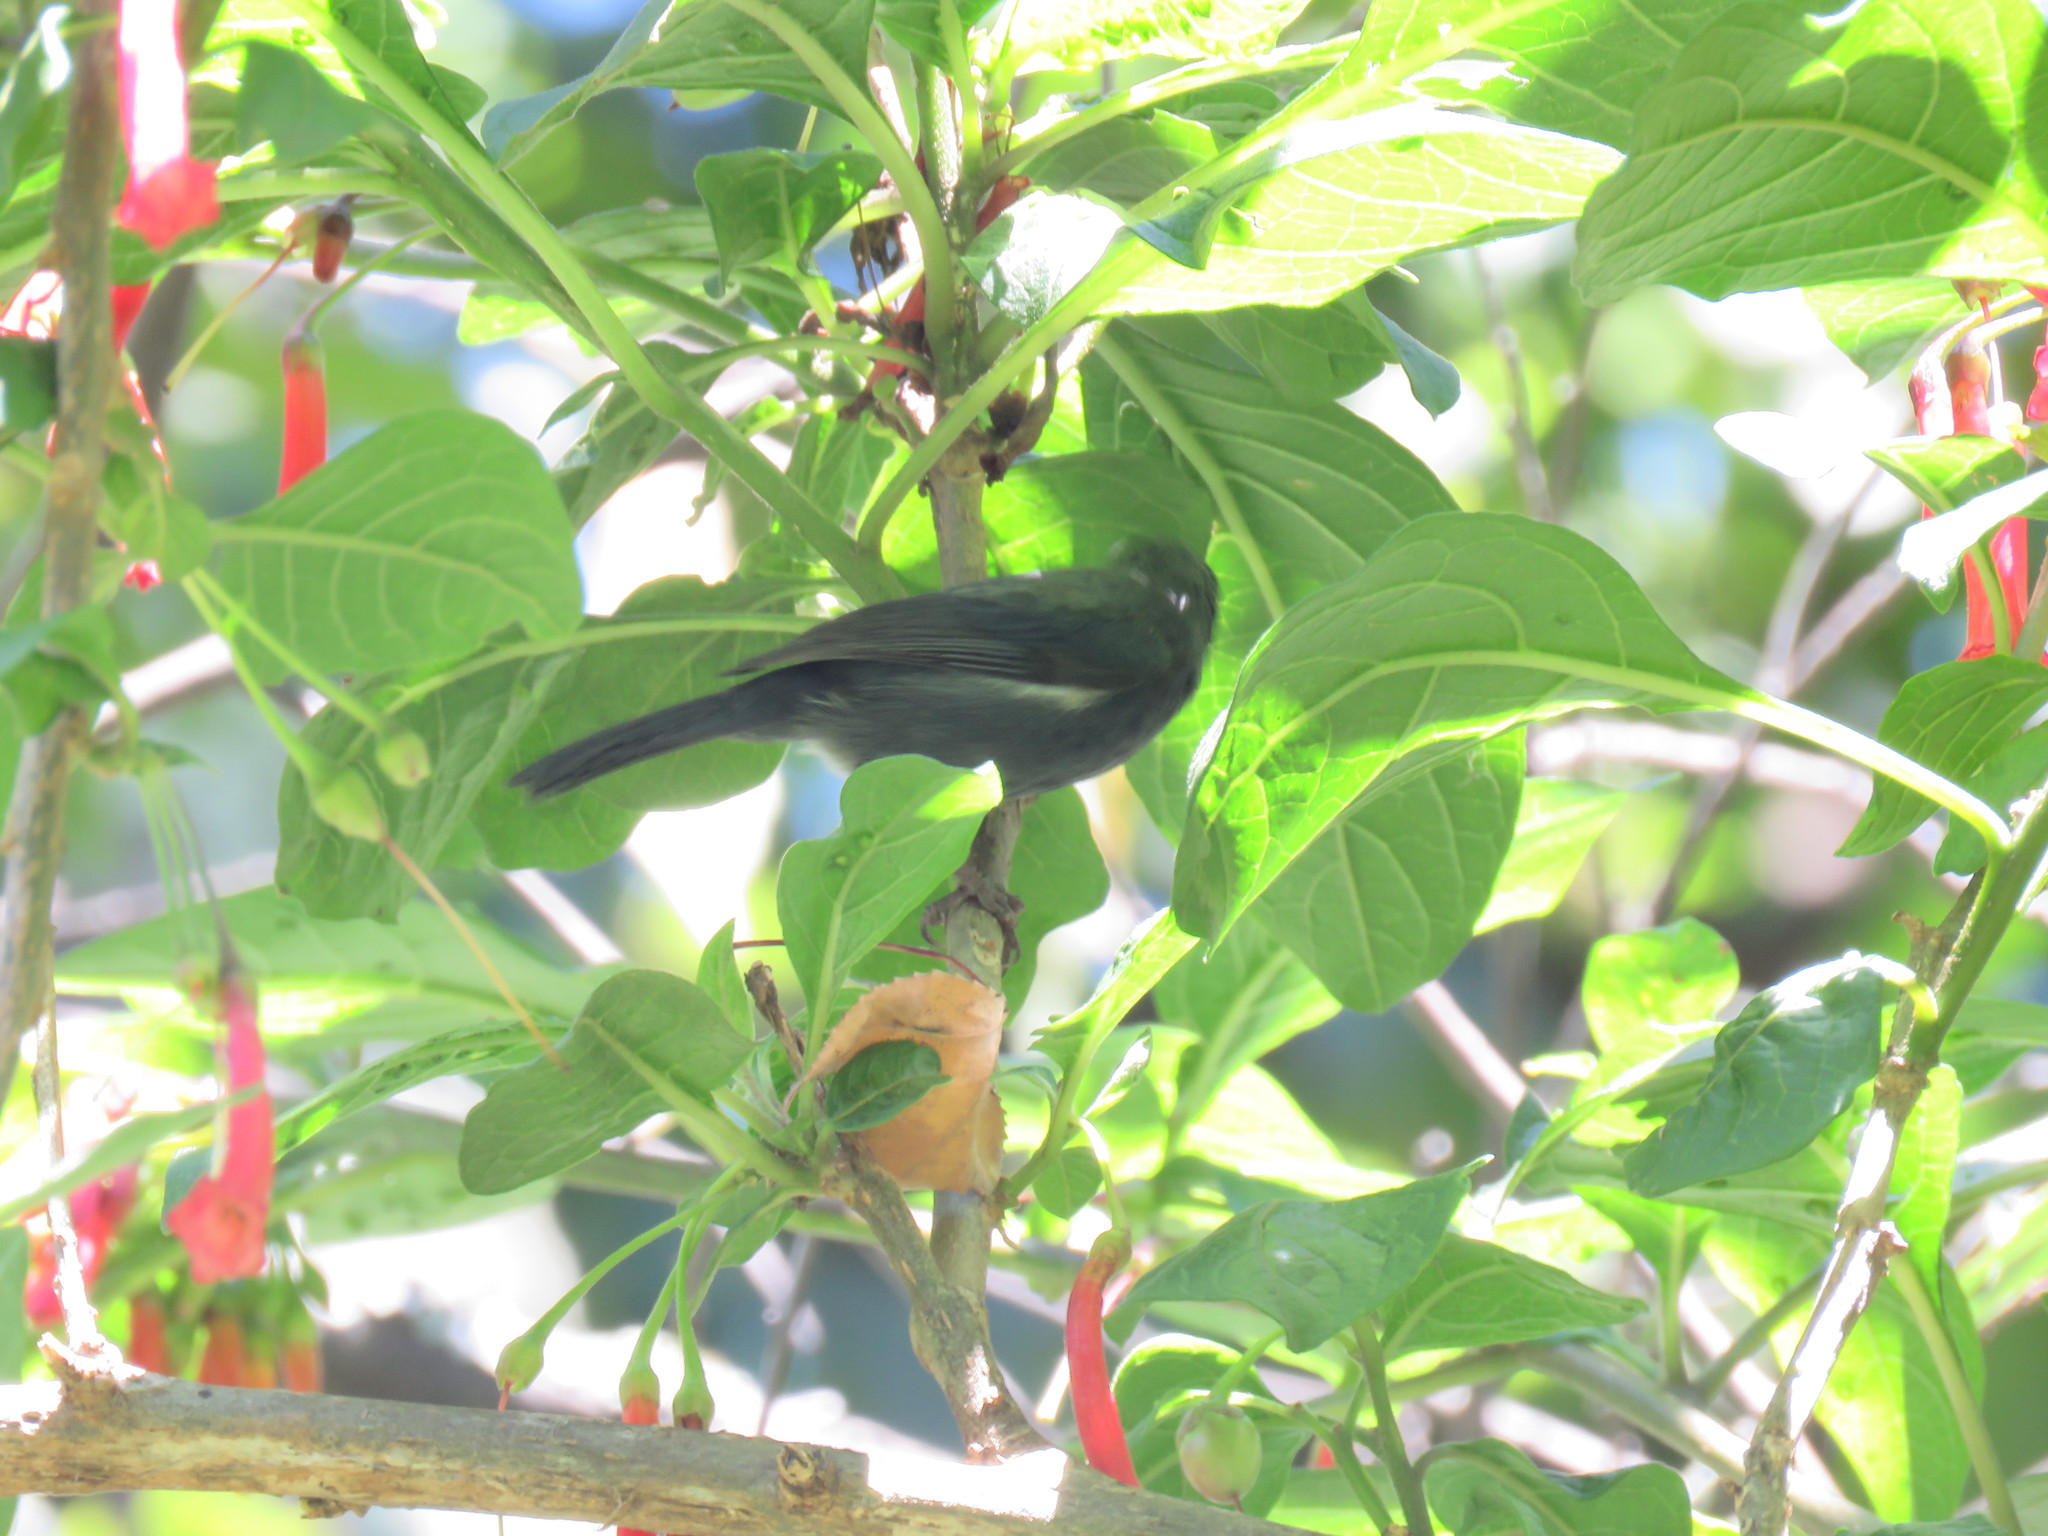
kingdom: Animalia
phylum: Chordata
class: Aves
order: Passeriformes
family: Thraupidae
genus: Diglossa
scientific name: Diglossa albilatera
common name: White-sided flowerpiercer
